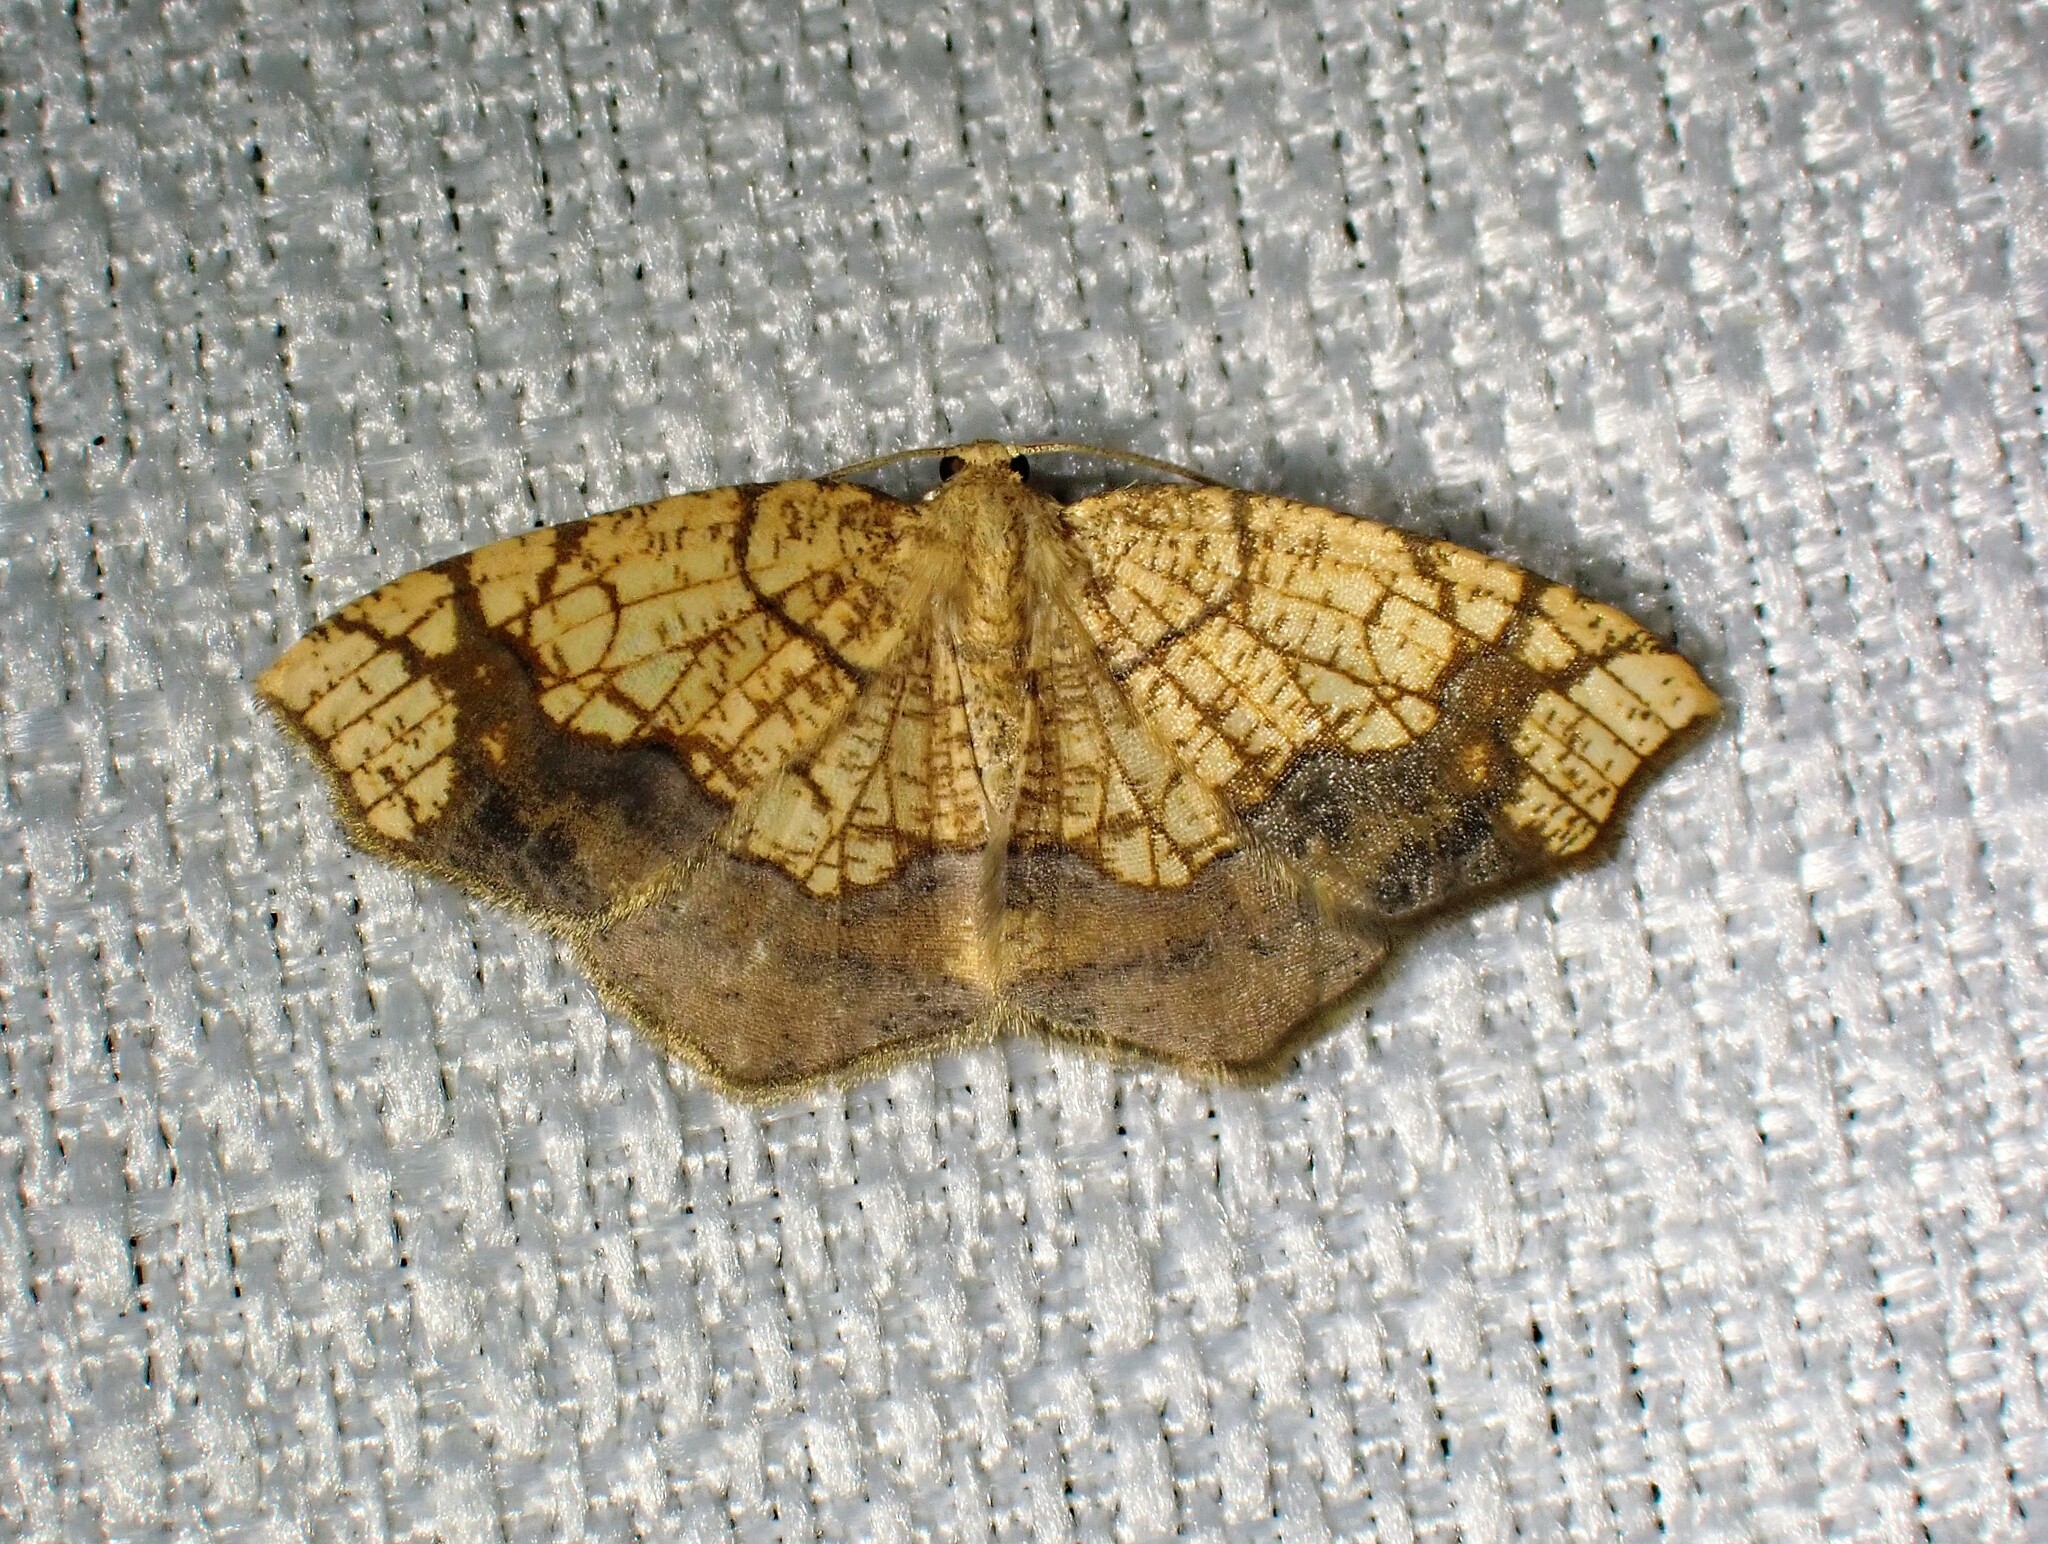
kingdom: Animalia
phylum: Arthropoda
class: Insecta
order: Lepidoptera
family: Geometridae
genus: Nematocampa
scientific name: Nematocampa resistaria
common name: Horned spanworm moth
